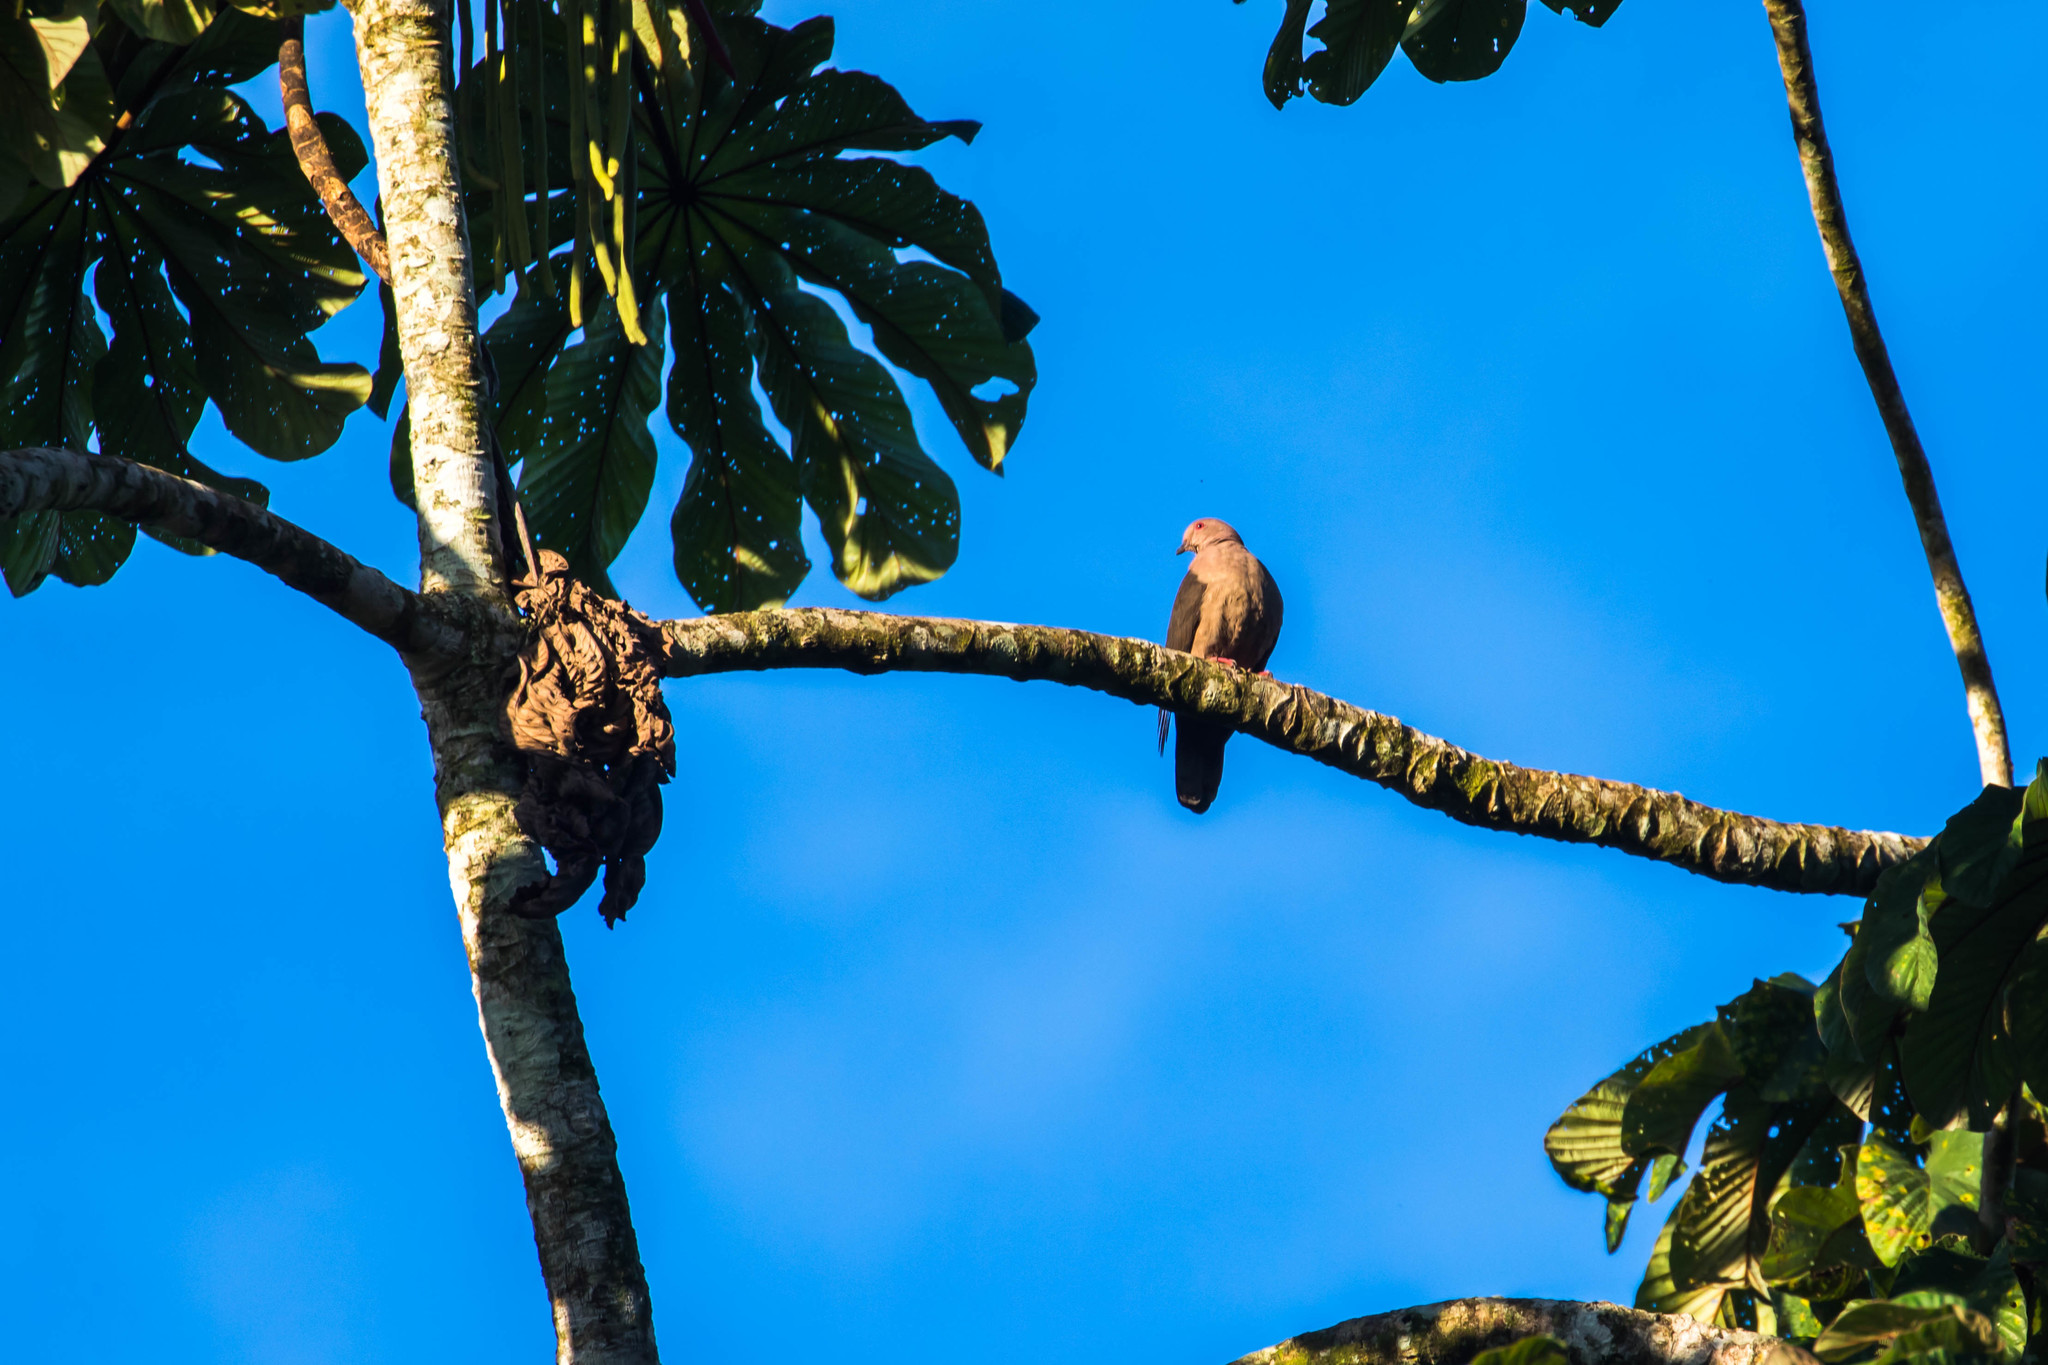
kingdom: Animalia
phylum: Chordata
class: Aves
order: Columbiformes
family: Columbidae
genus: Patagioenas
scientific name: Patagioenas nigrirostris
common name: Short-billed pigeon
